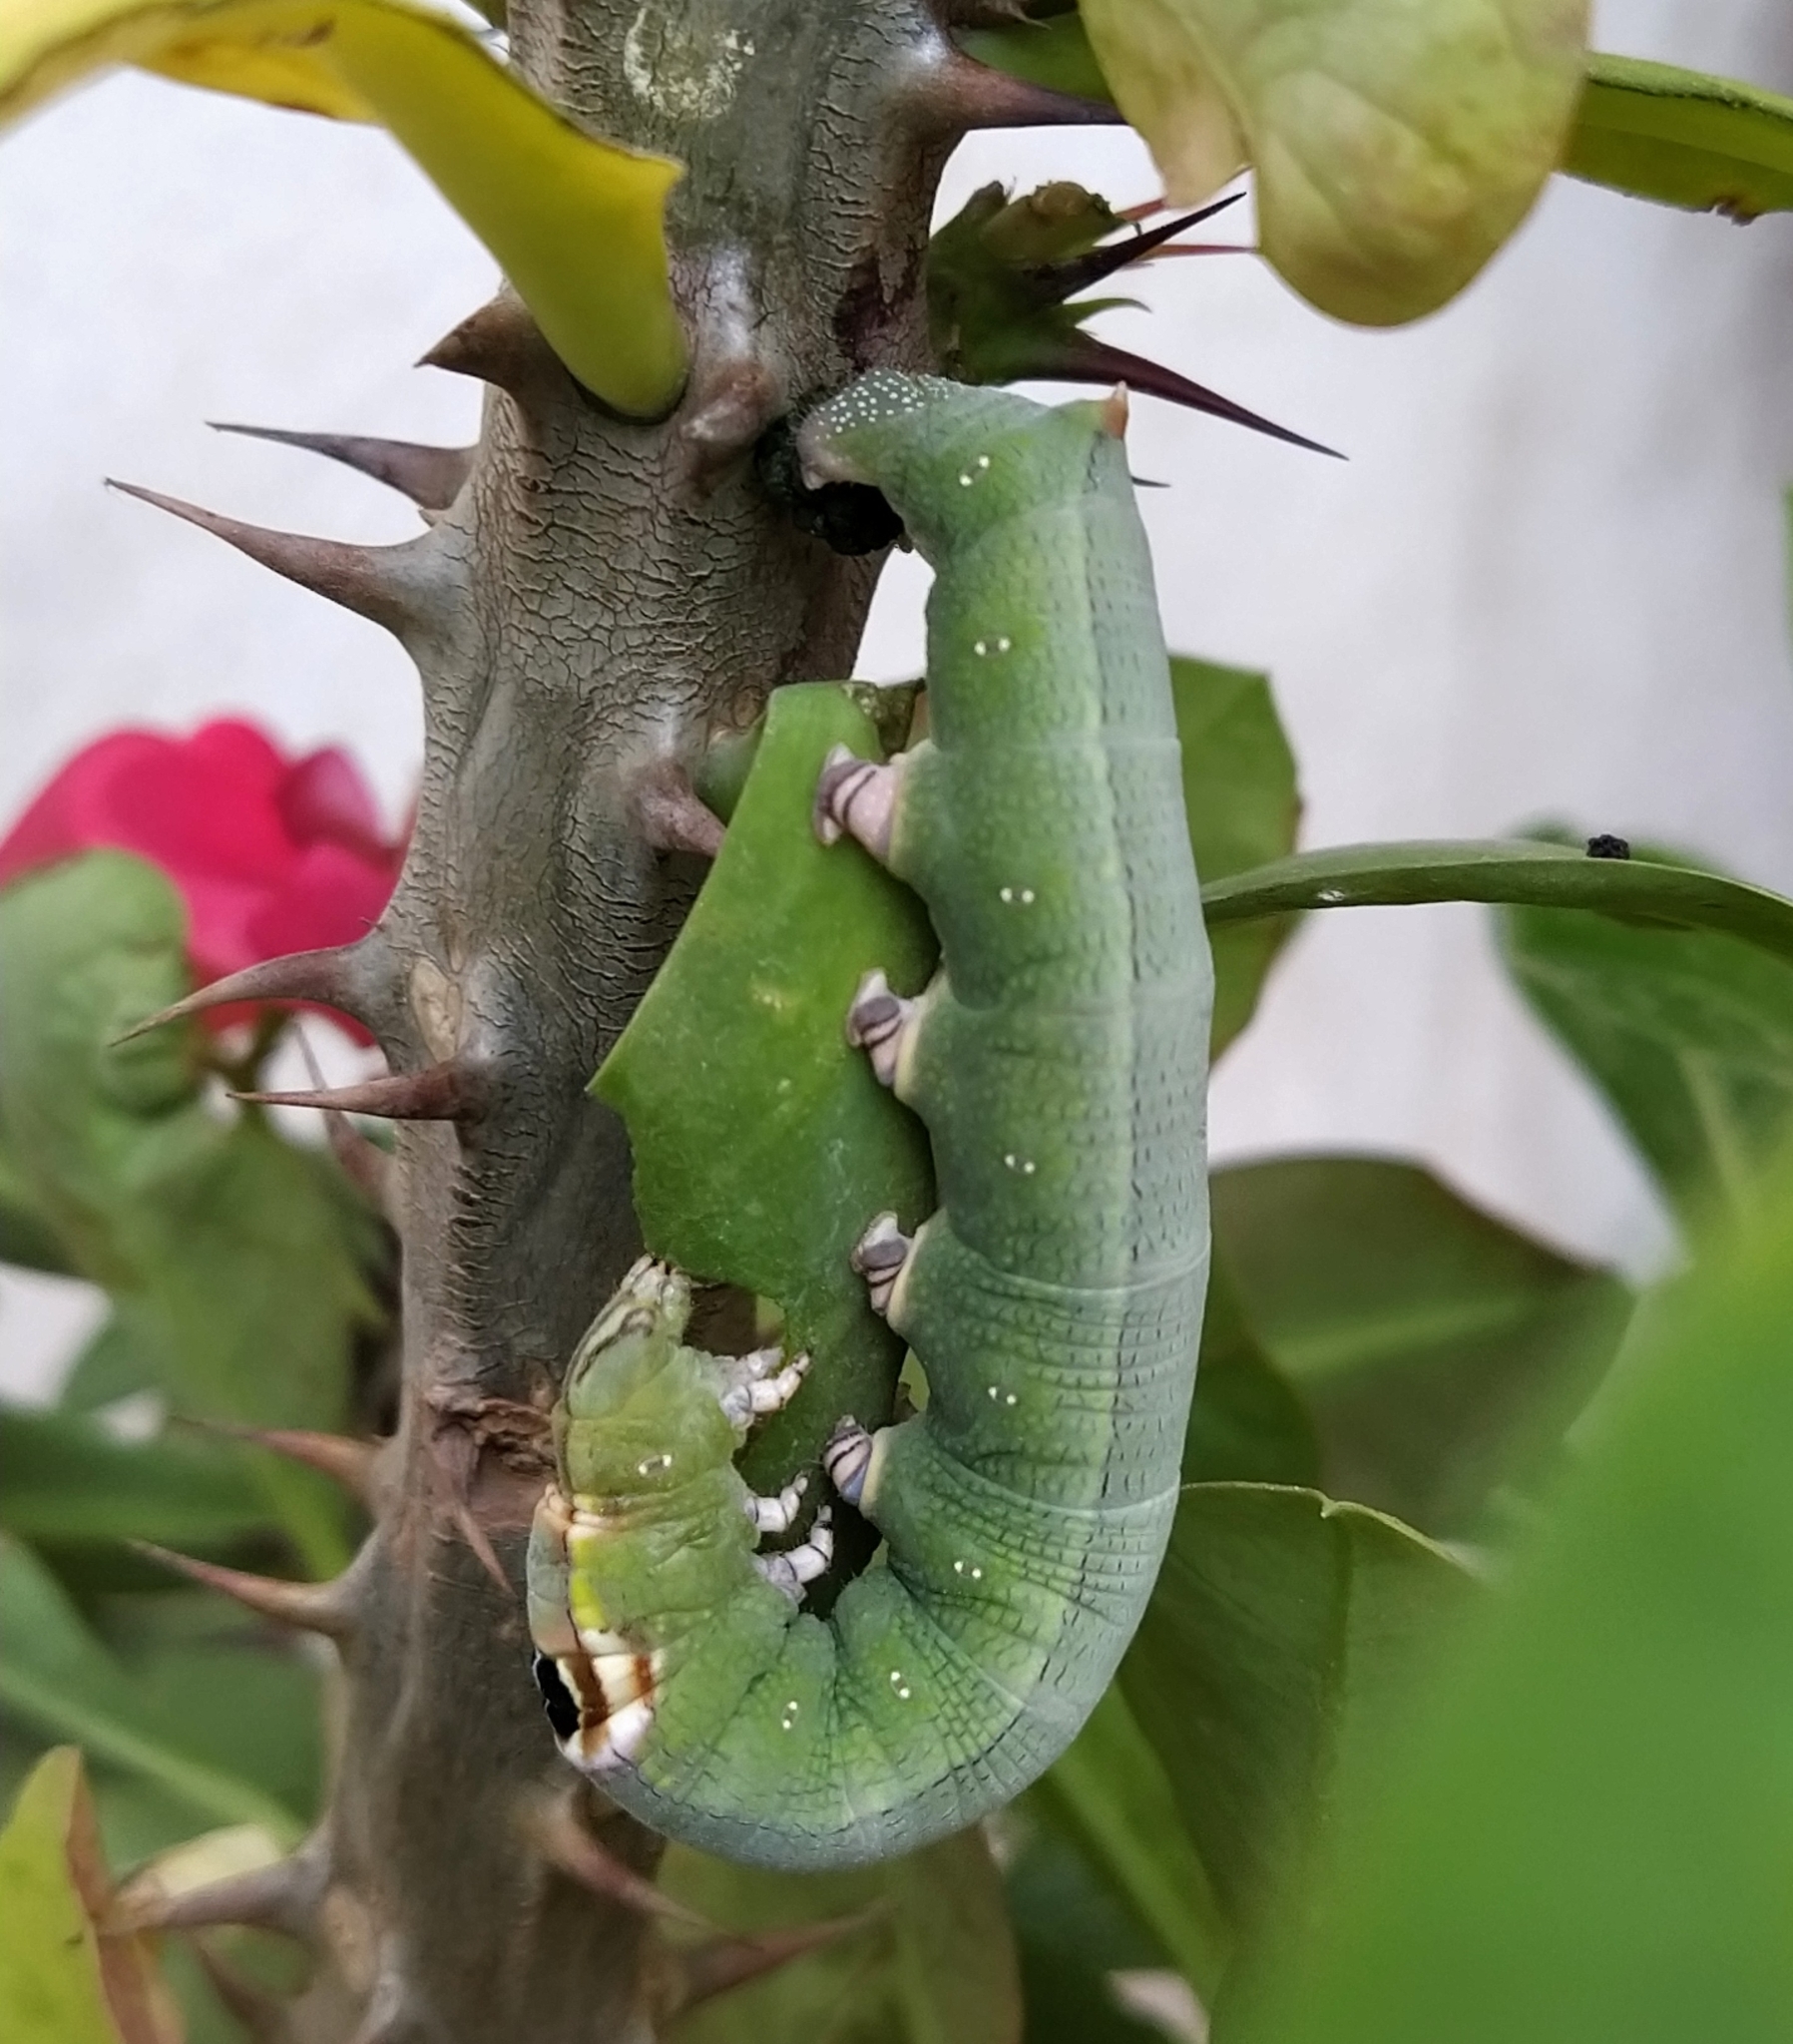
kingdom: Animalia
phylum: Arthropoda
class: Insecta
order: Lepidoptera
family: Sphingidae
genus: Erinnyis
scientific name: Erinnyis ello
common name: Ello sphinx
